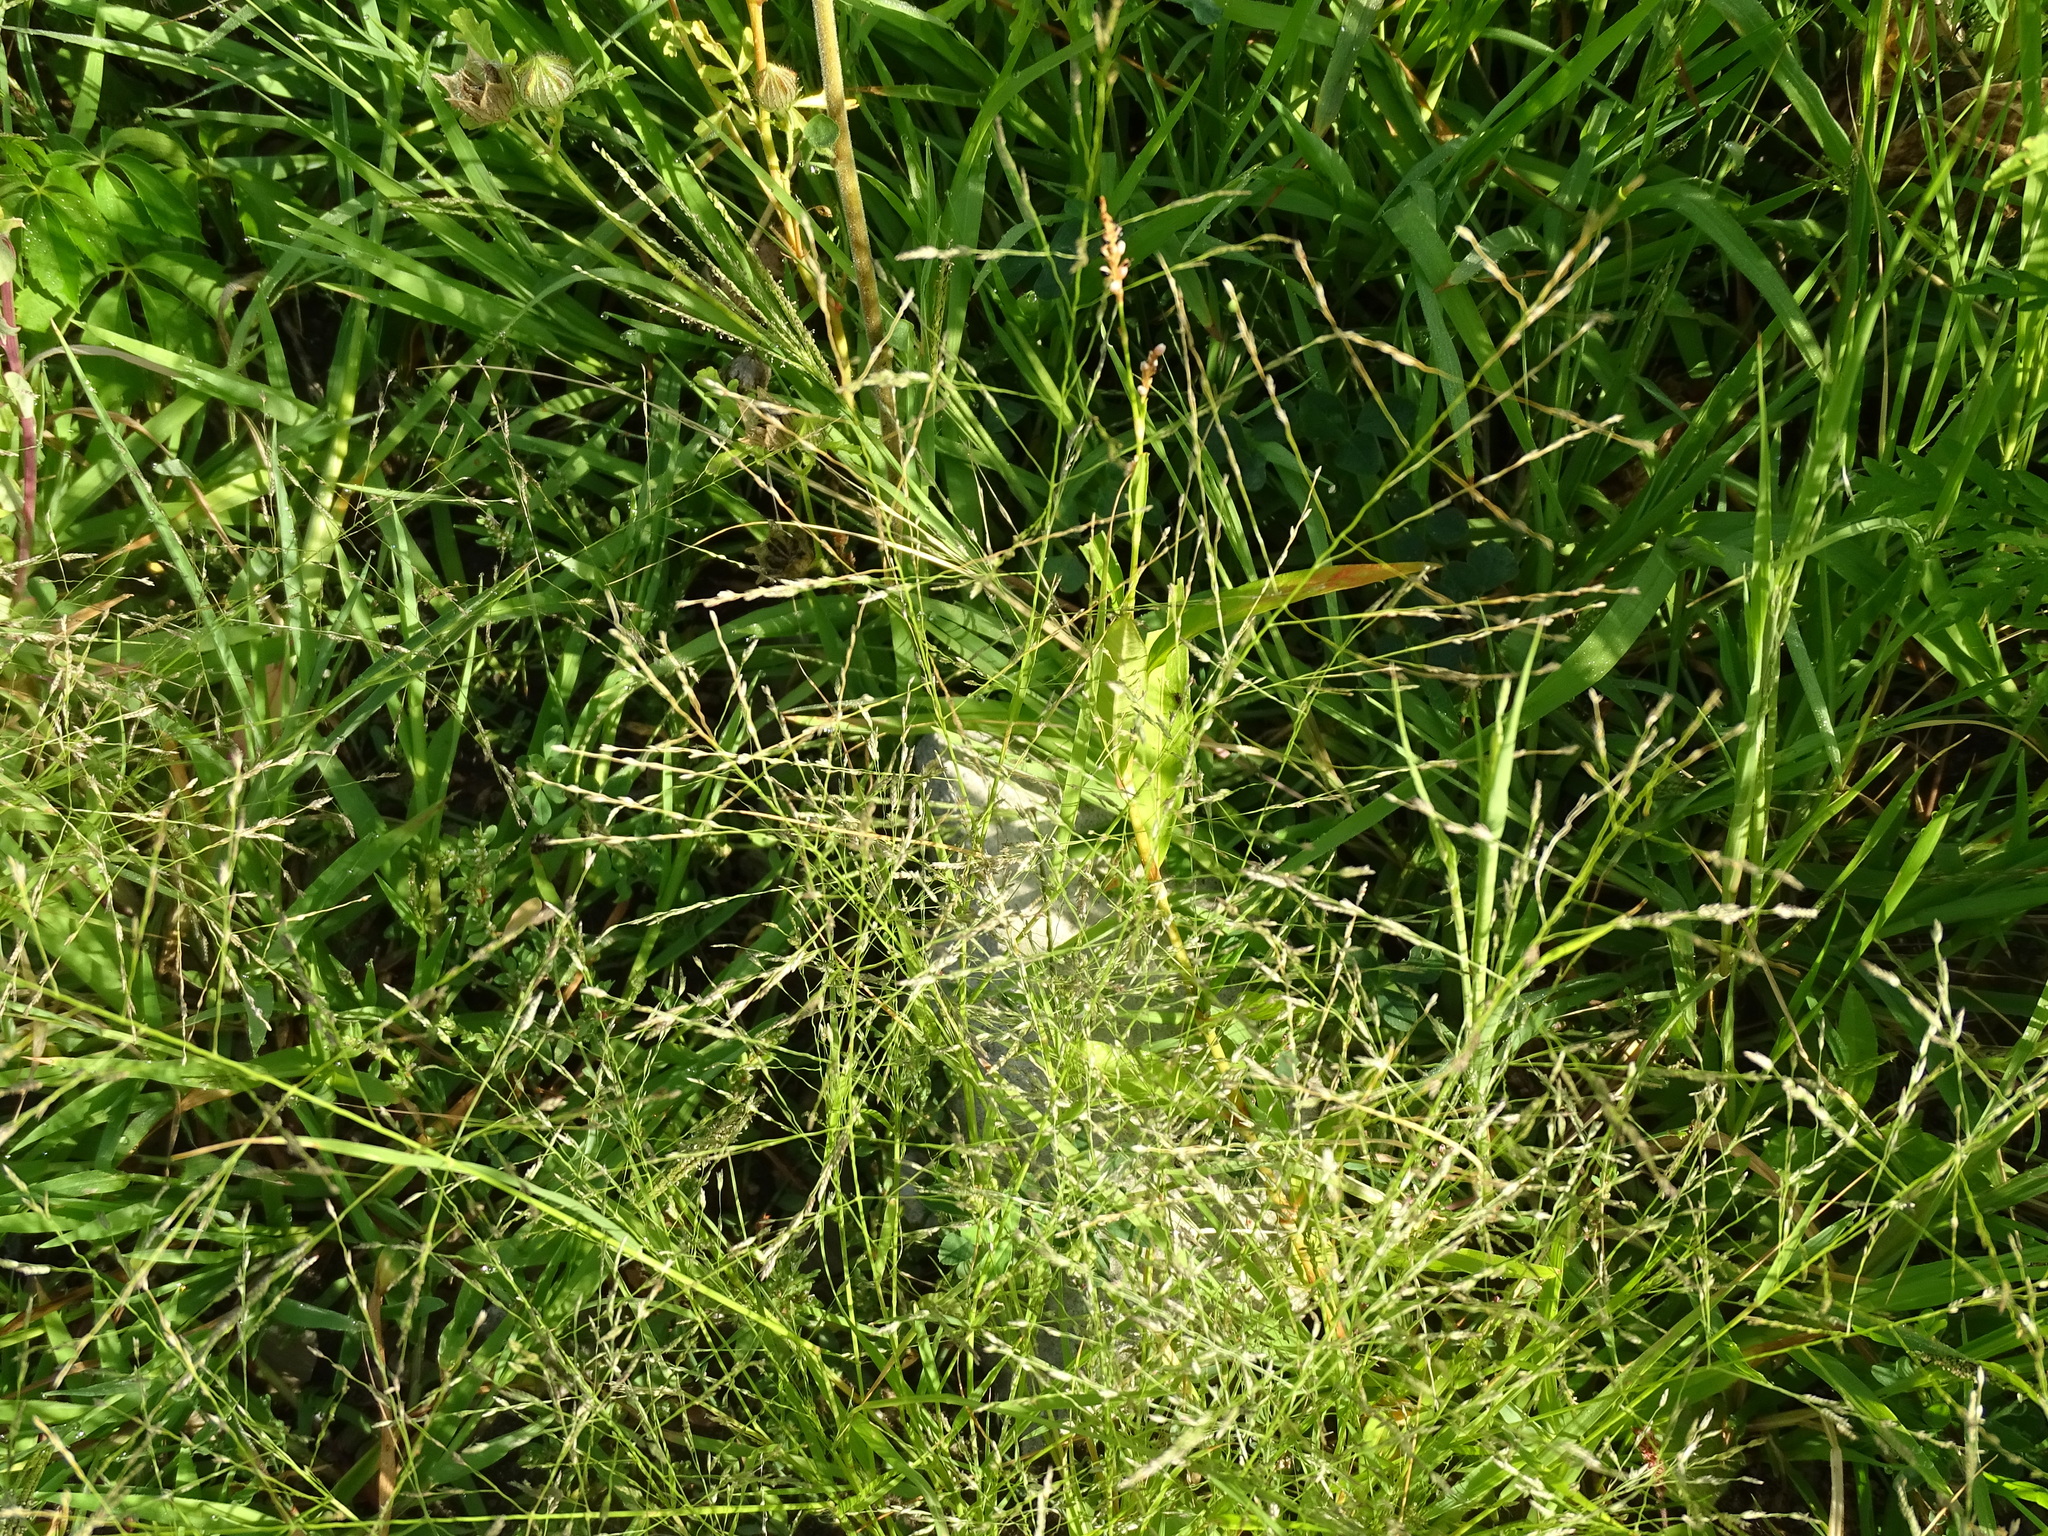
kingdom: Plantae
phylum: Tracheophyta
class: Liliopsida
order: Poales
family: Poaceae
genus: Eragrostis
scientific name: Eragrostis pectinacea
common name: Tufted lovegrass
